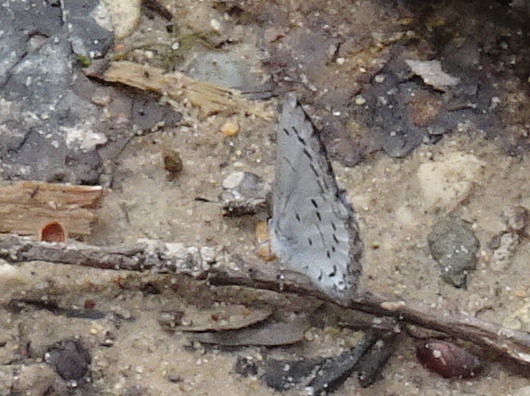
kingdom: Animalia
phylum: Arthropoda
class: Insecta
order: Lepidoptera
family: Lycaenidae
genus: Celastrina
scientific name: Celastrina ladon
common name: Spring azure
